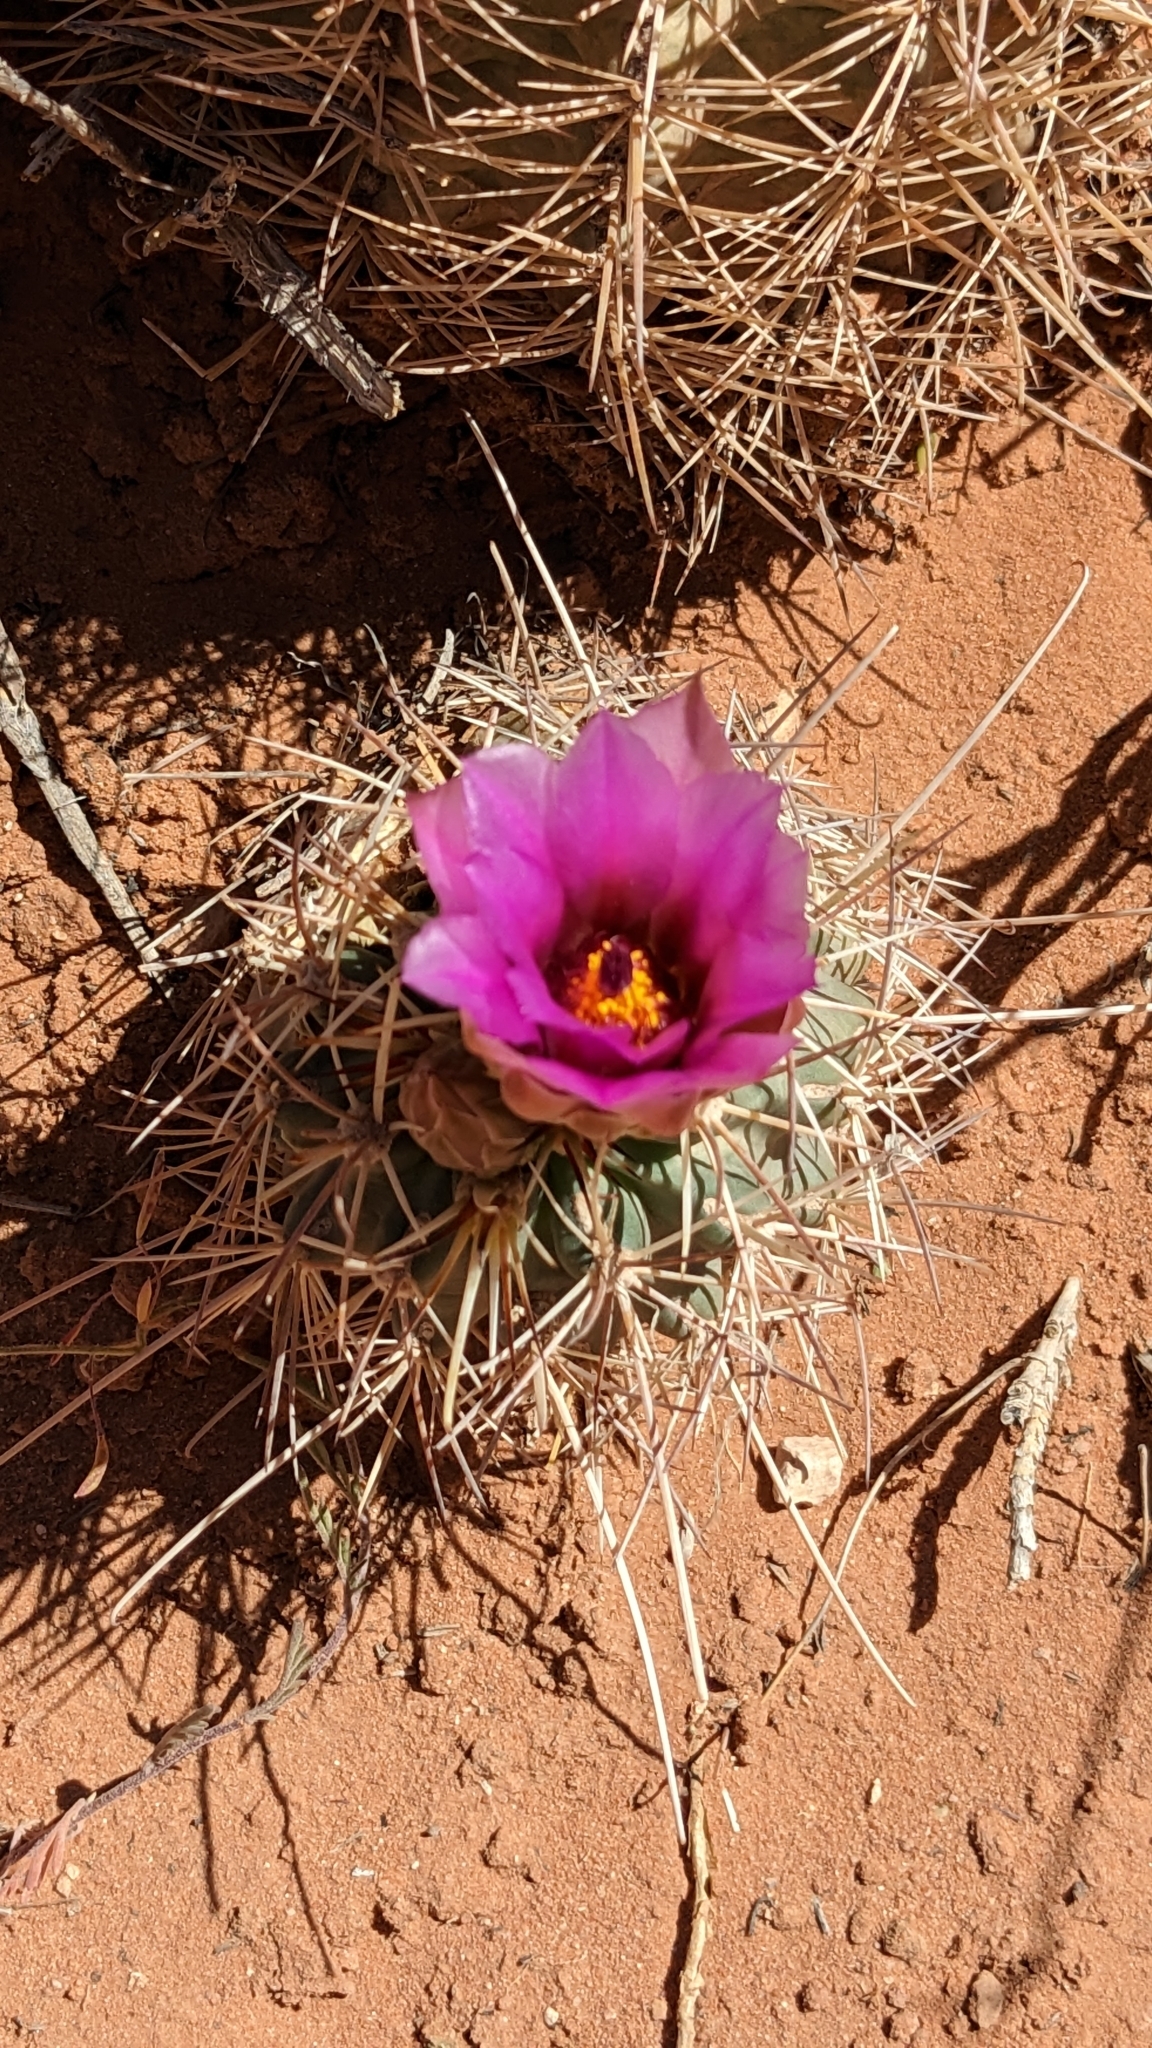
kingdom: Plantae
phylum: Tracheophyta
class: Magnoliopsida
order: Caryophyllales
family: Cactaceae
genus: Sclerocactus
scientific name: Sclerocactus parviflorus
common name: Small-flower fishhook cactus
